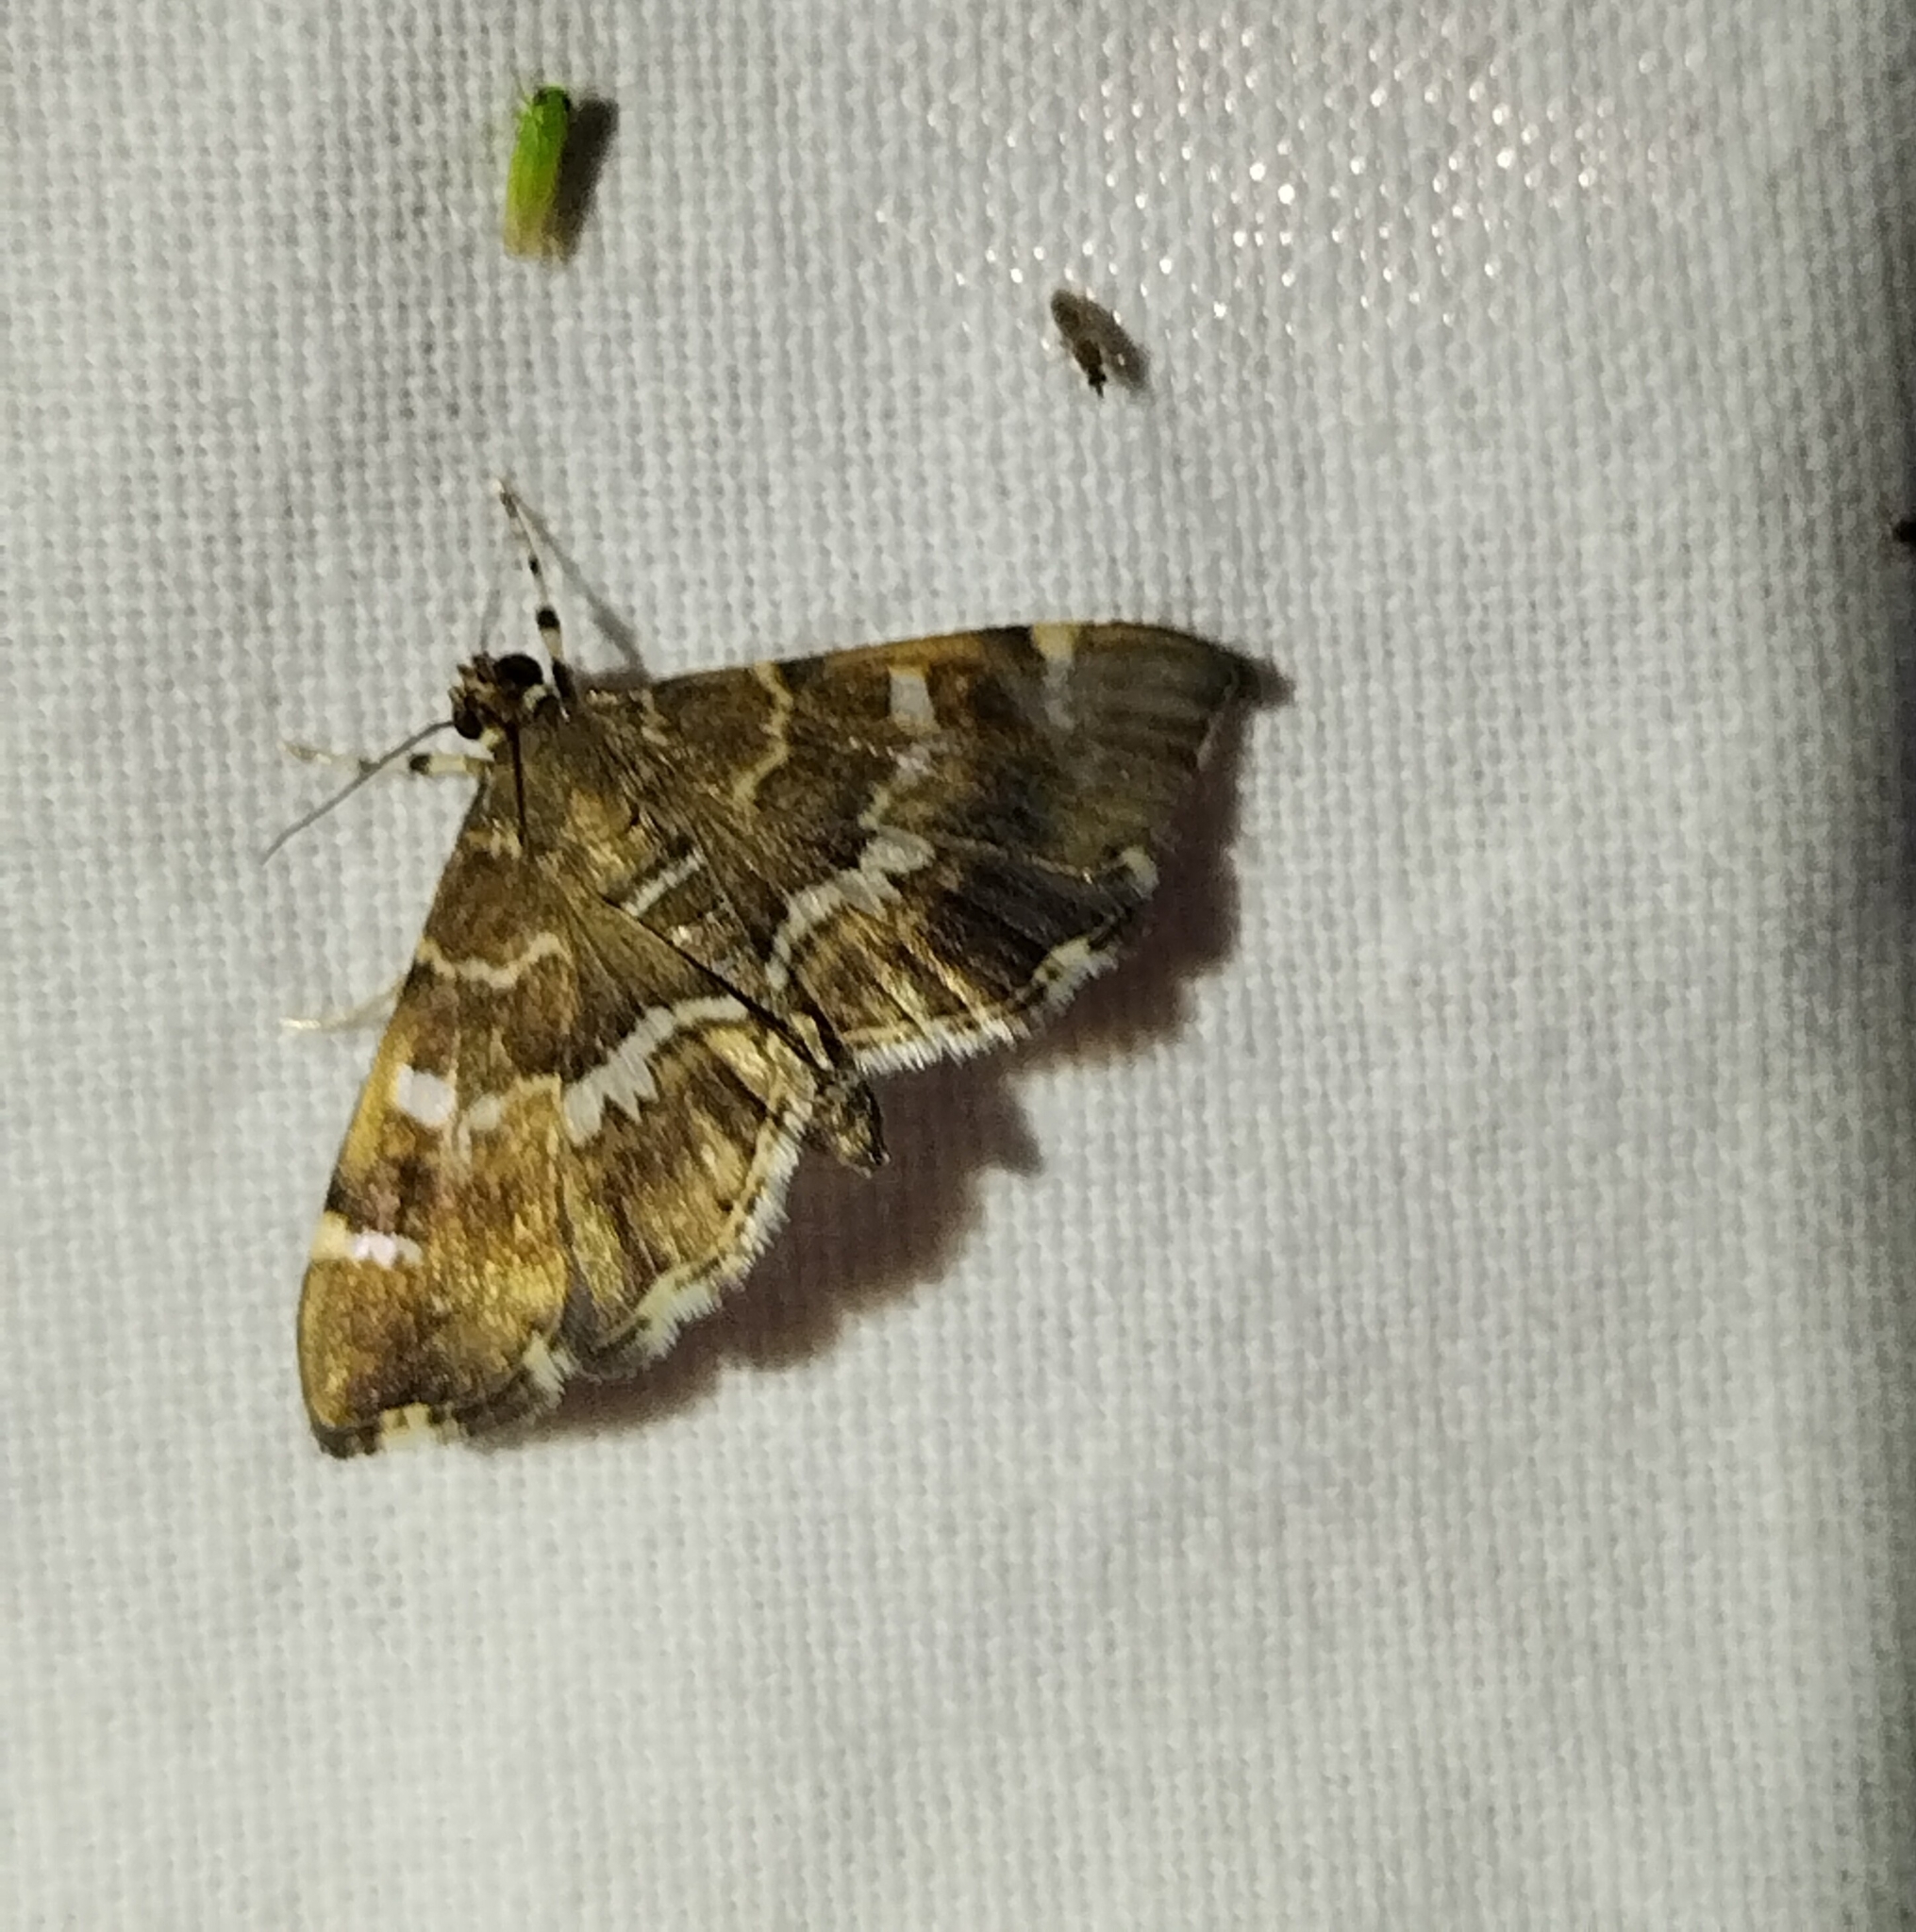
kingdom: Animalia
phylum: Arthropoda
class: Insecta
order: Lepidoptera
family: Crambidae
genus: Hymenia
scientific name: Hymenia perspectalis
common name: Spotted beet webworm
